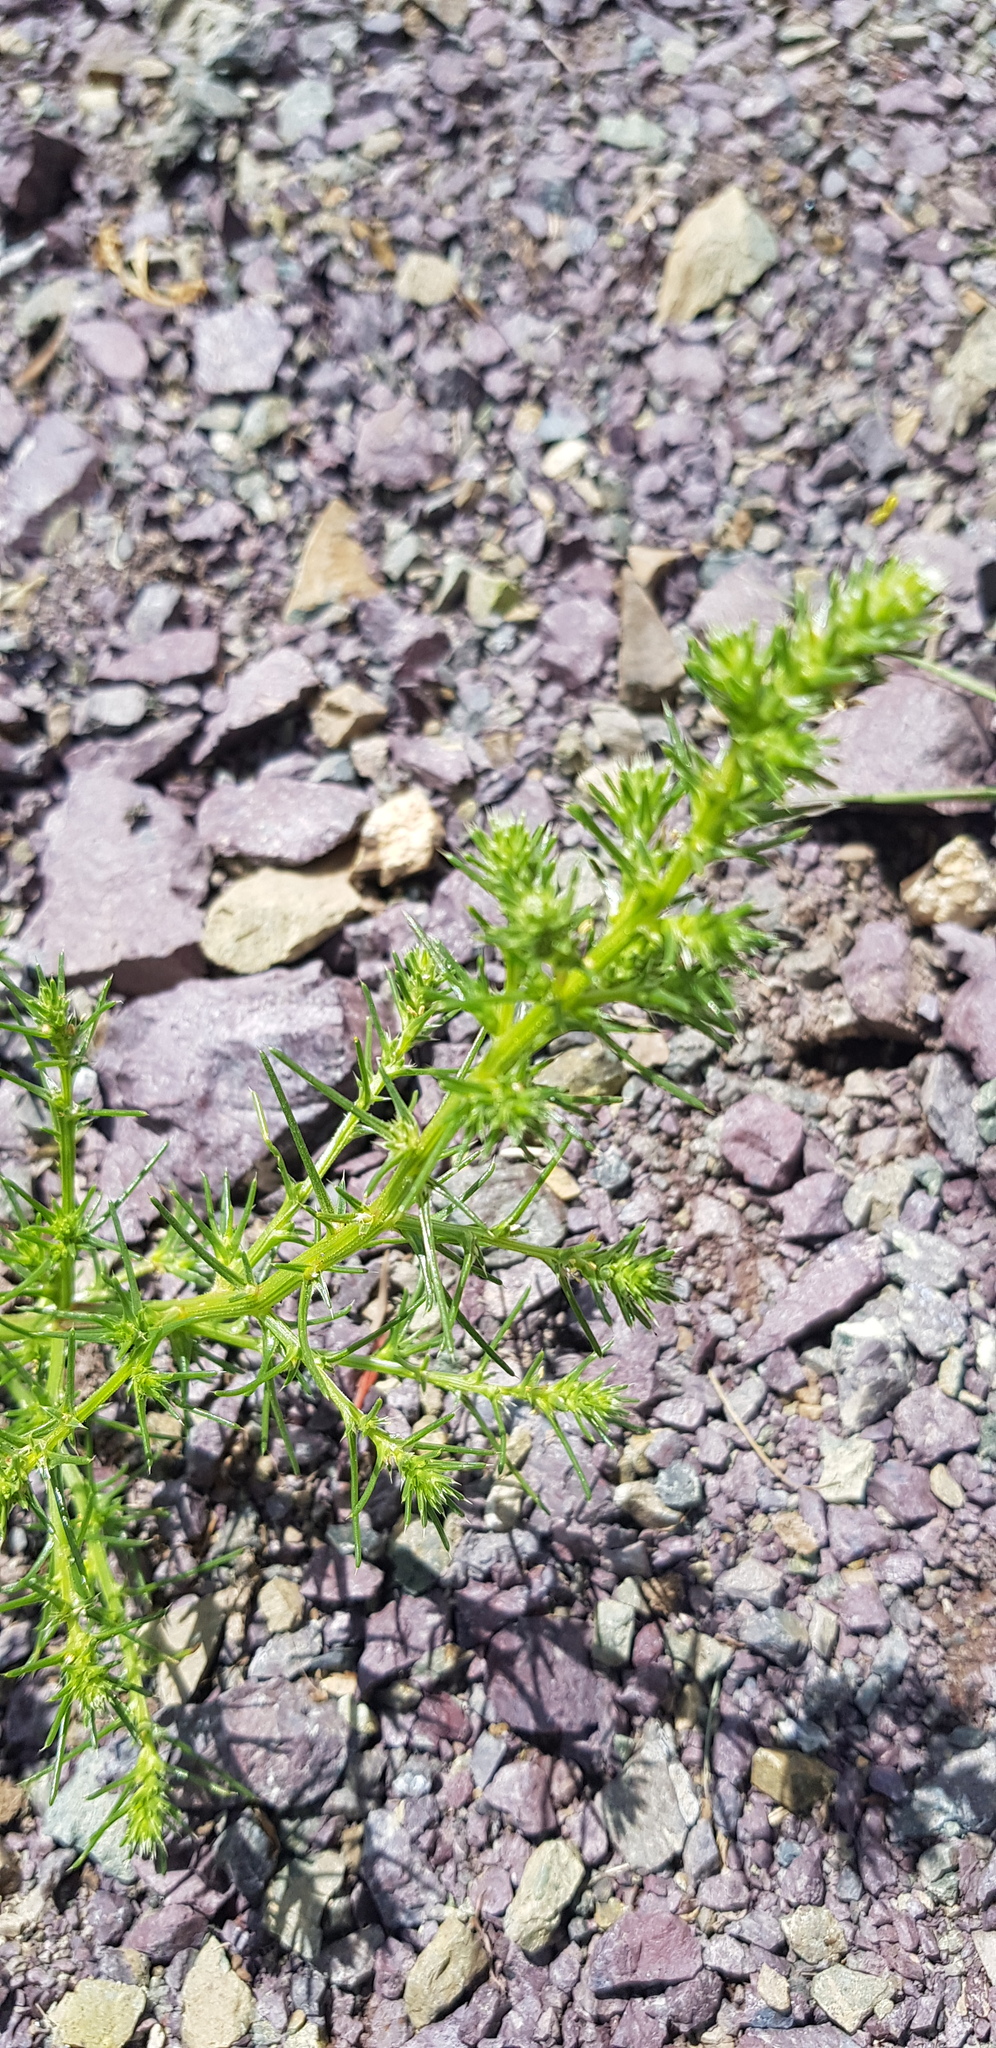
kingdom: Plantae
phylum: Tracheophyta
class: Magnoliopsida
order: Caryophyllales
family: Amaranthaceae
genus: Salsola
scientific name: Salsola collina
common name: Tumbleweed
